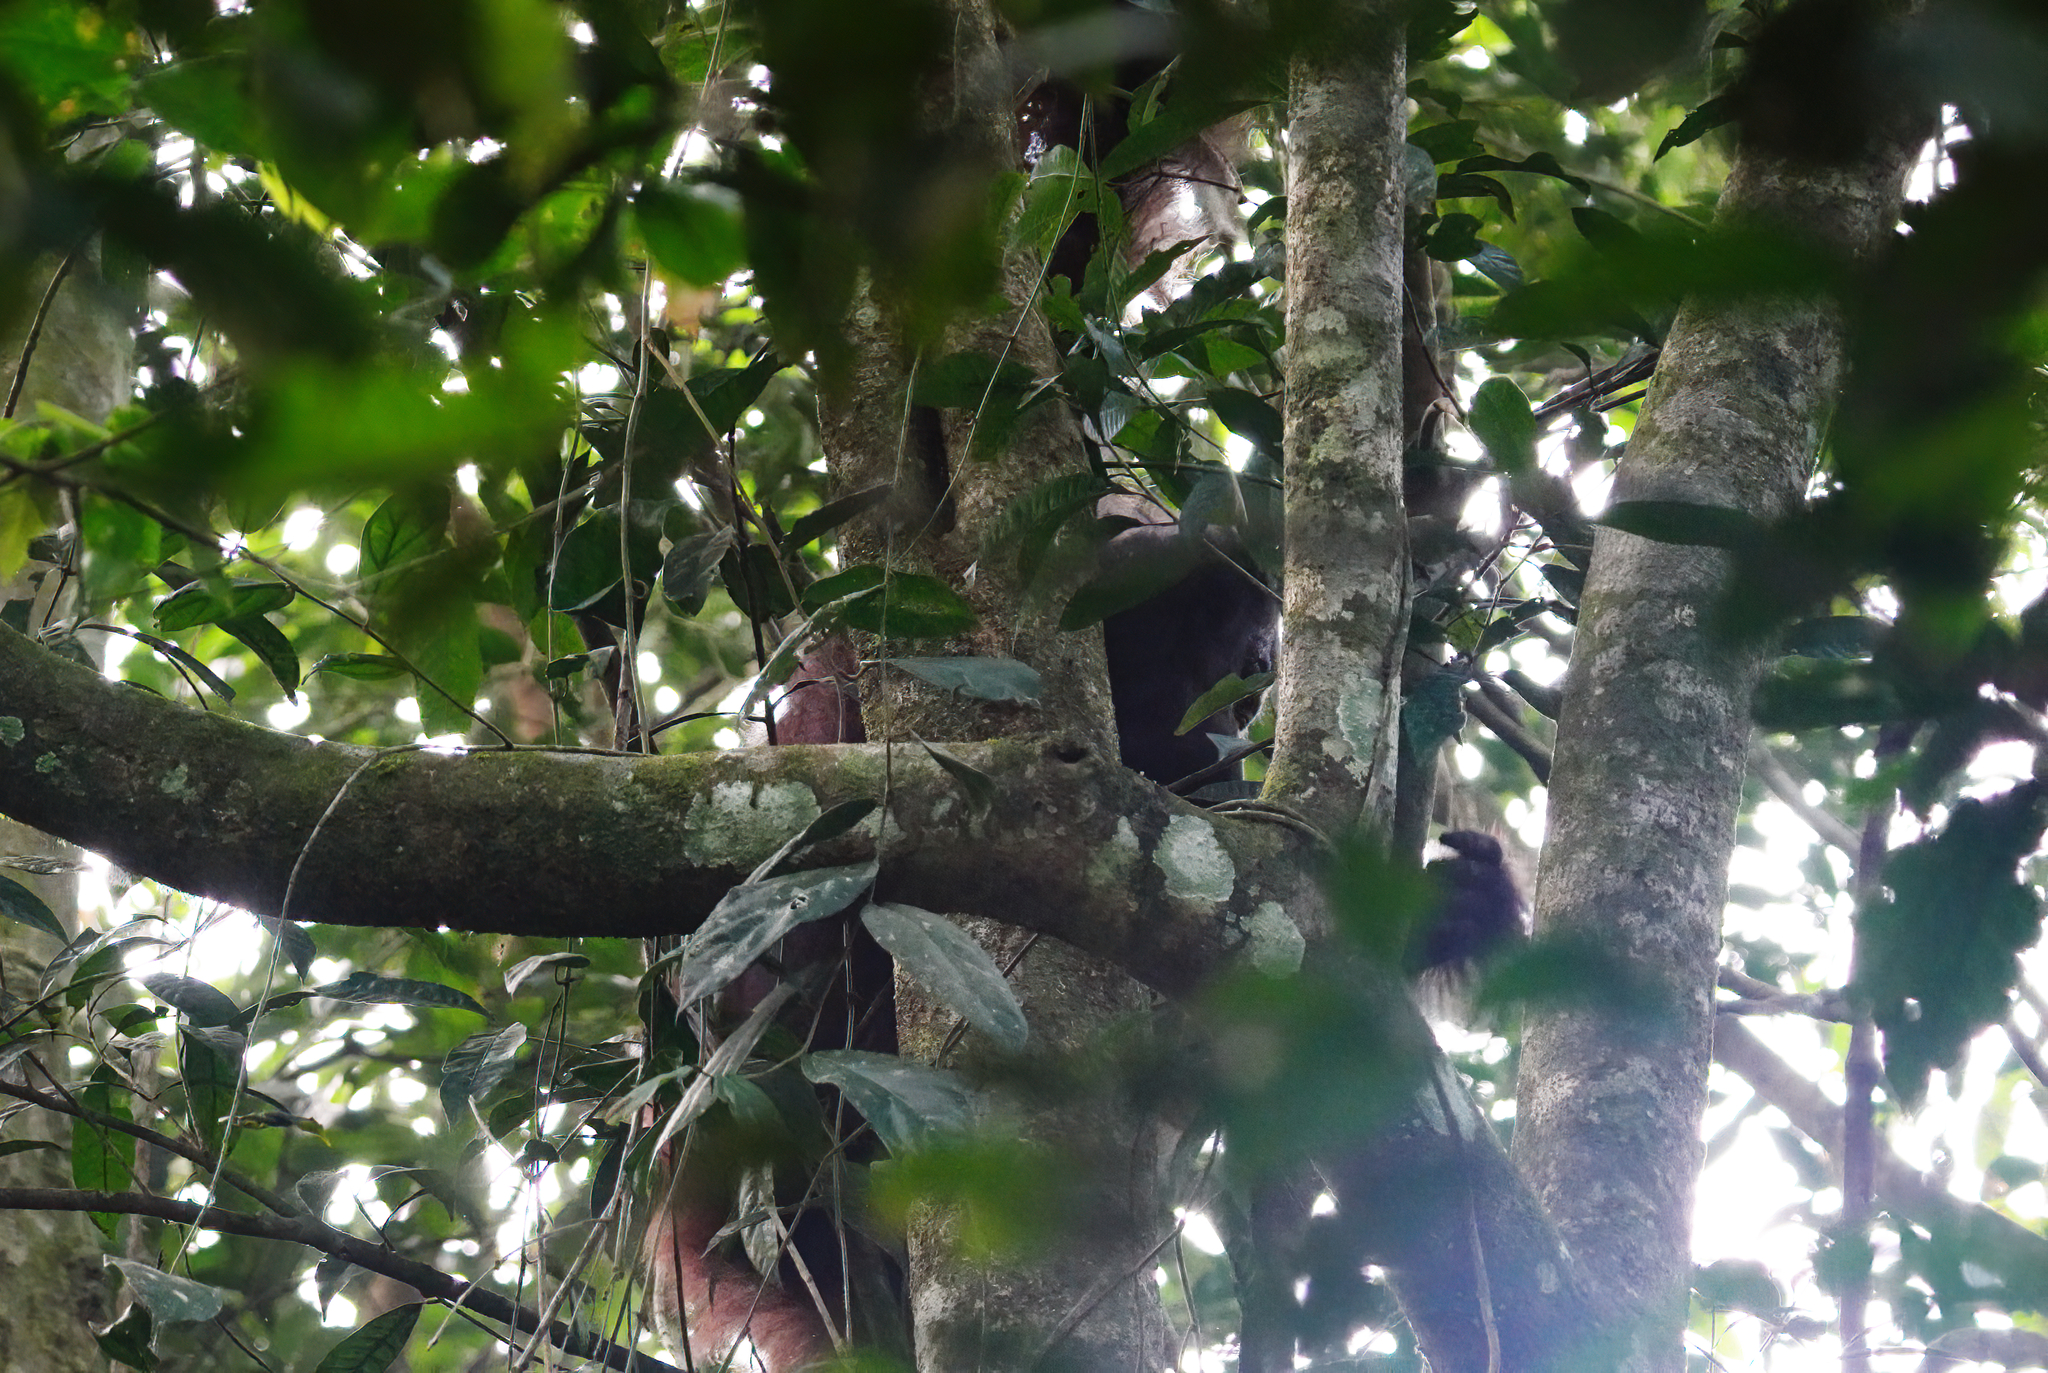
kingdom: Animalia
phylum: Chordata
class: Mammalia
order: Primates
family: Hominidae
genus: Pongo
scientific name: Pongo pygmaeus
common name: Bornean orangutan
